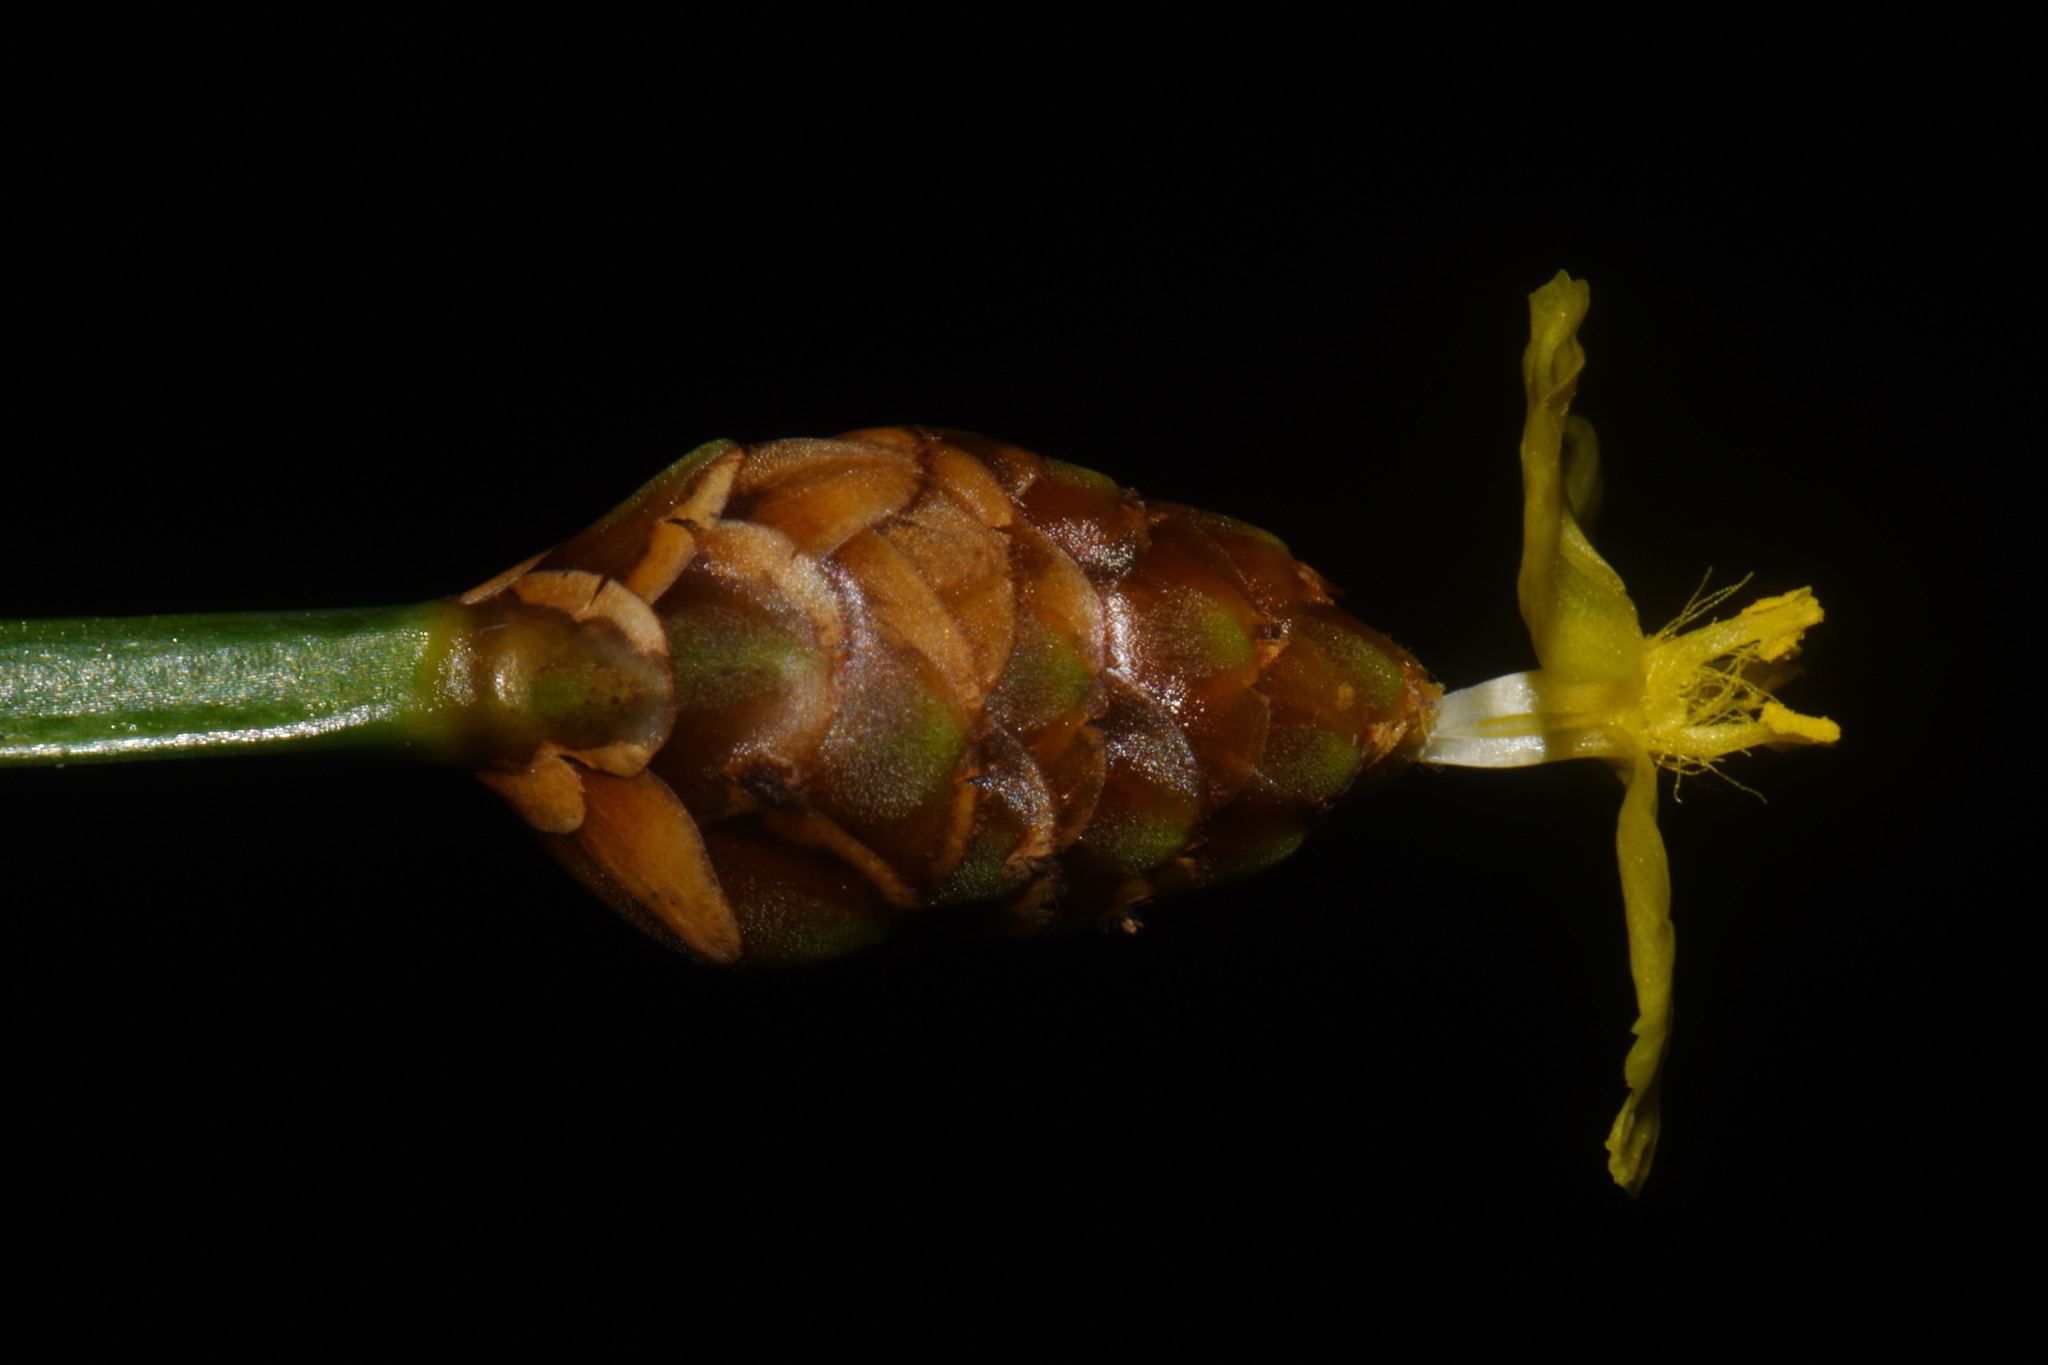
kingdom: Plantae
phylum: Tracheophyta
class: Liliopsida
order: Poales
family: Xyridaceae
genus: Xyris
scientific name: Xyris torta
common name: Common yelloweyed grass
